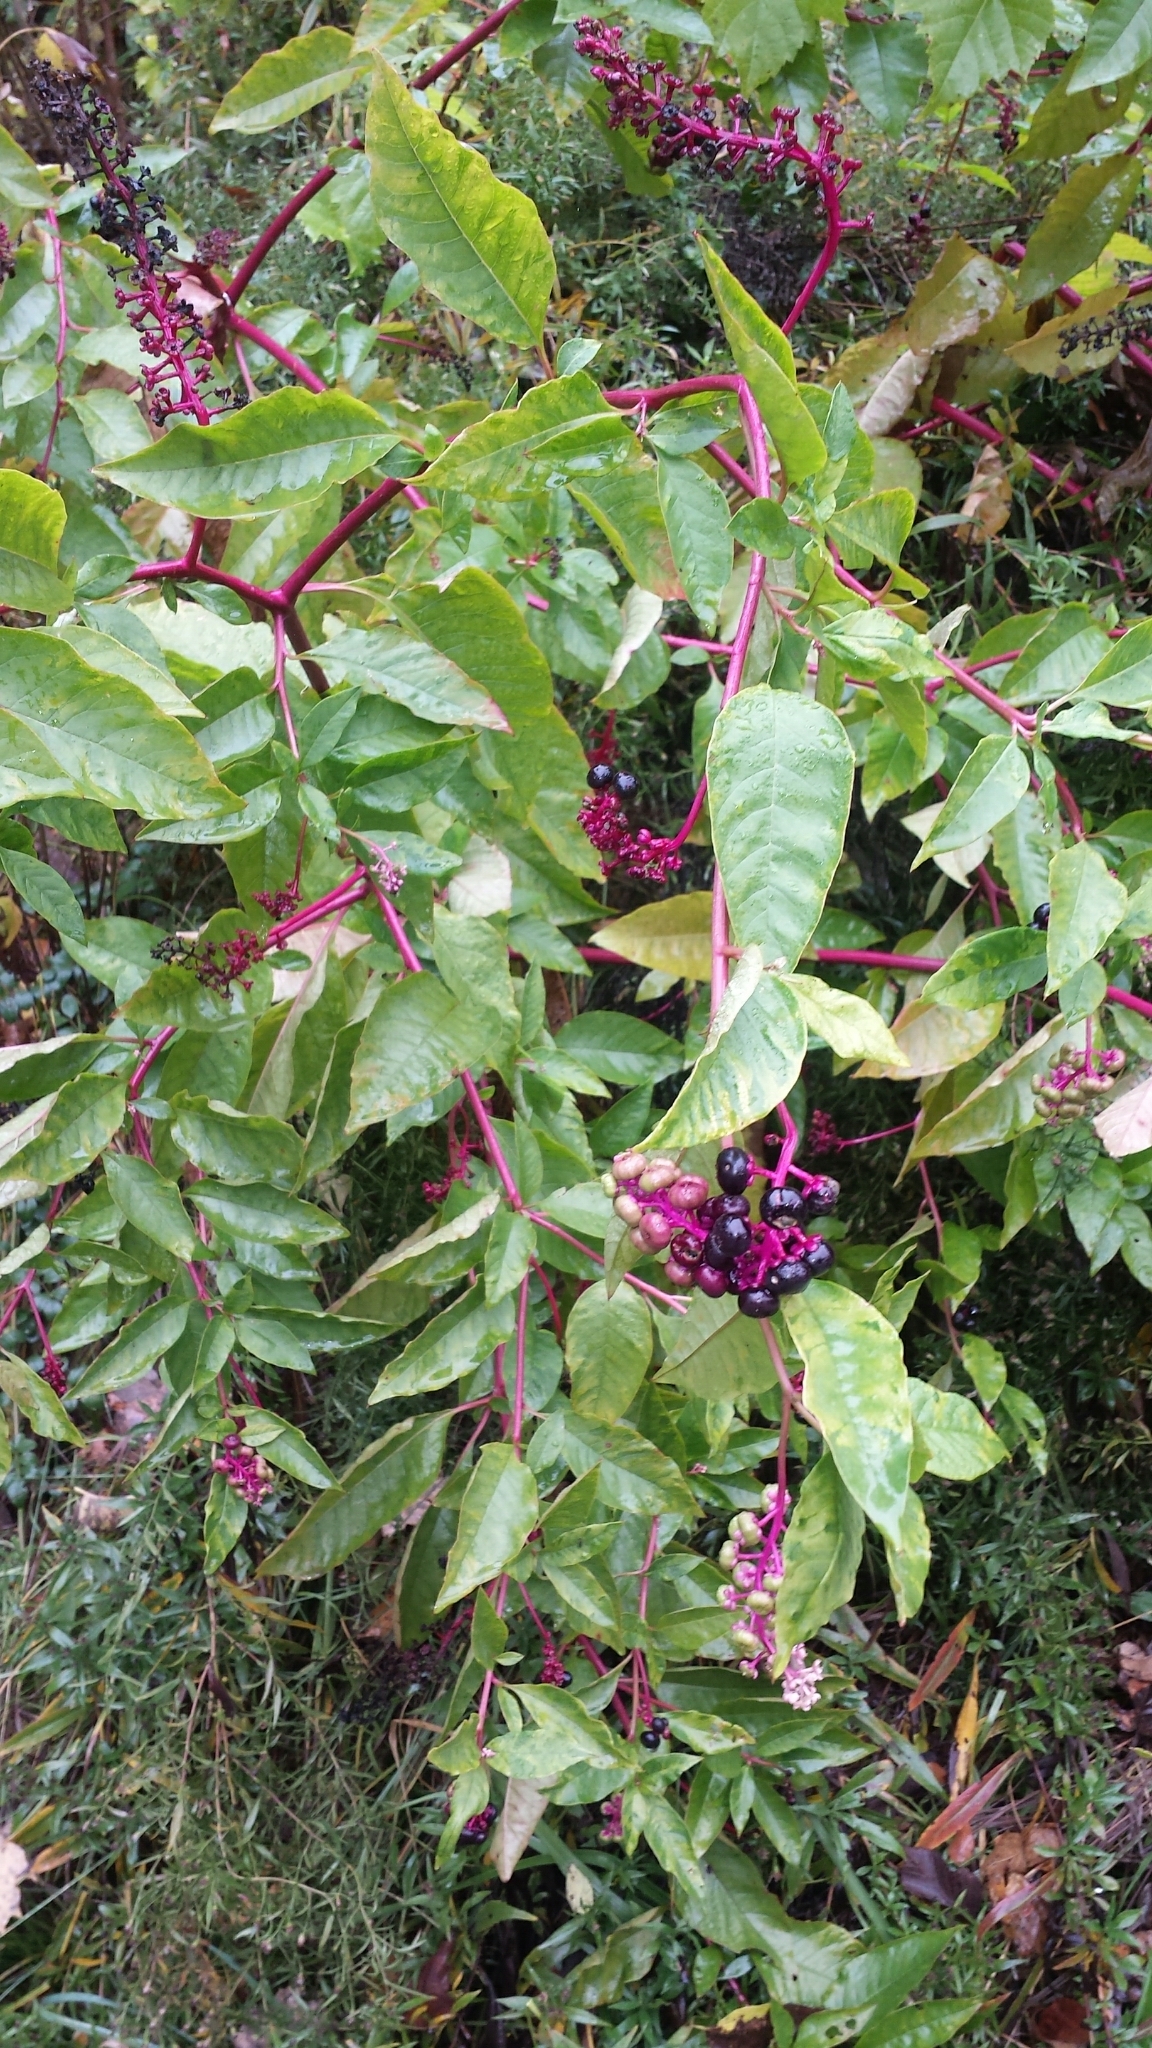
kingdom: Plantae
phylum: Tracheophyta
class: Magnoliopsida
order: Caryophyllales
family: Phytolaccaceae
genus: Phytolacca
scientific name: Phytolacca americana
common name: American pokeweed
